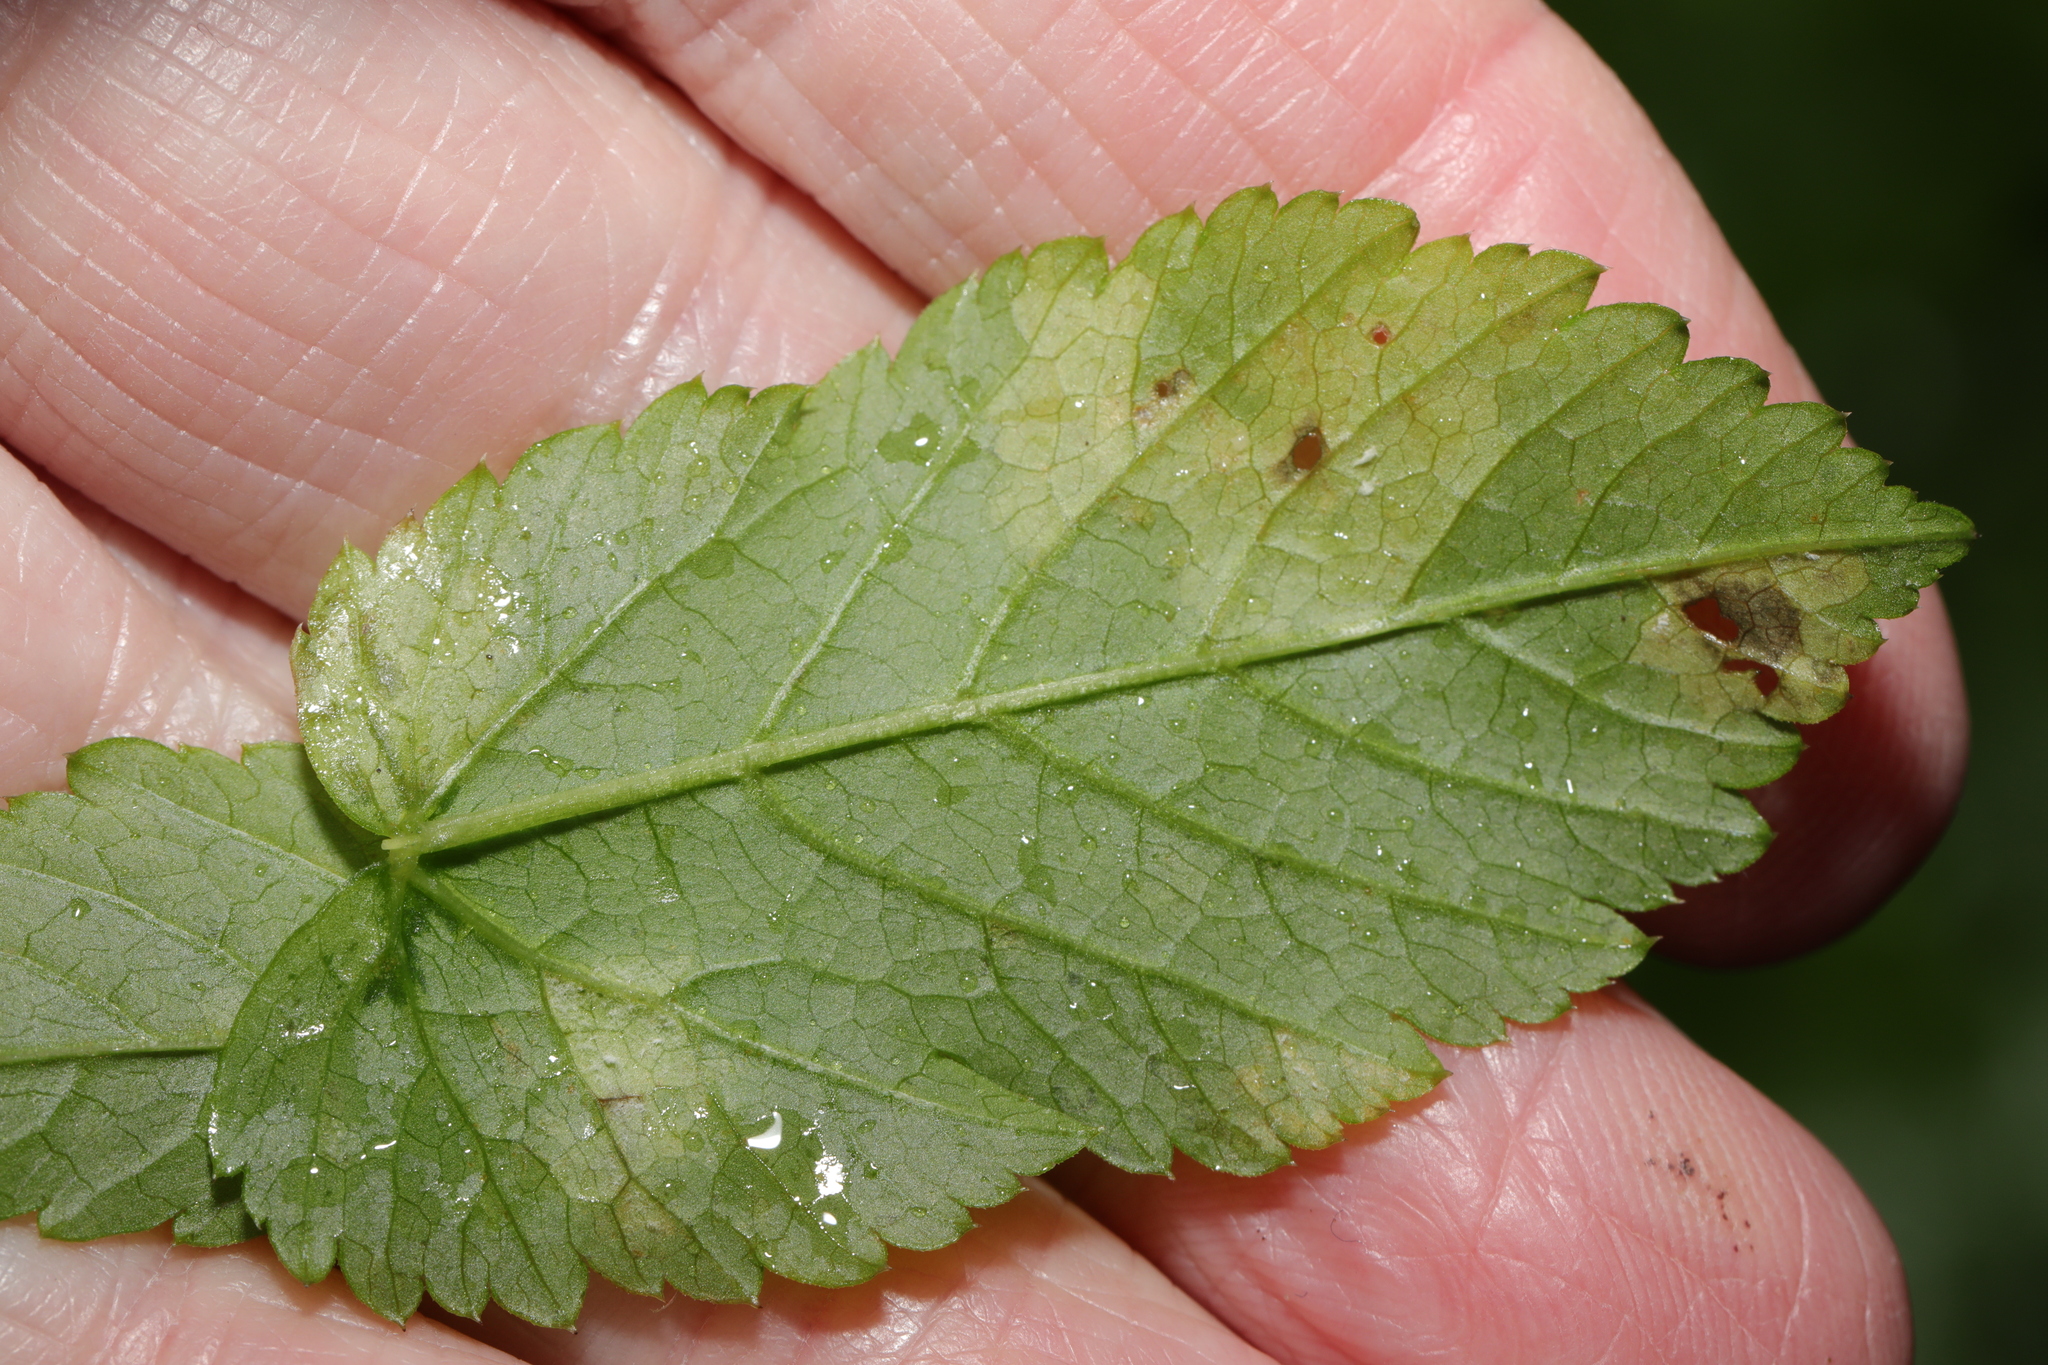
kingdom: Chromista
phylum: Oomycota
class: Peronosporea
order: Peronosporales
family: Peronosporaceae
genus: Peronospora
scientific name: Peronospora crustosa
